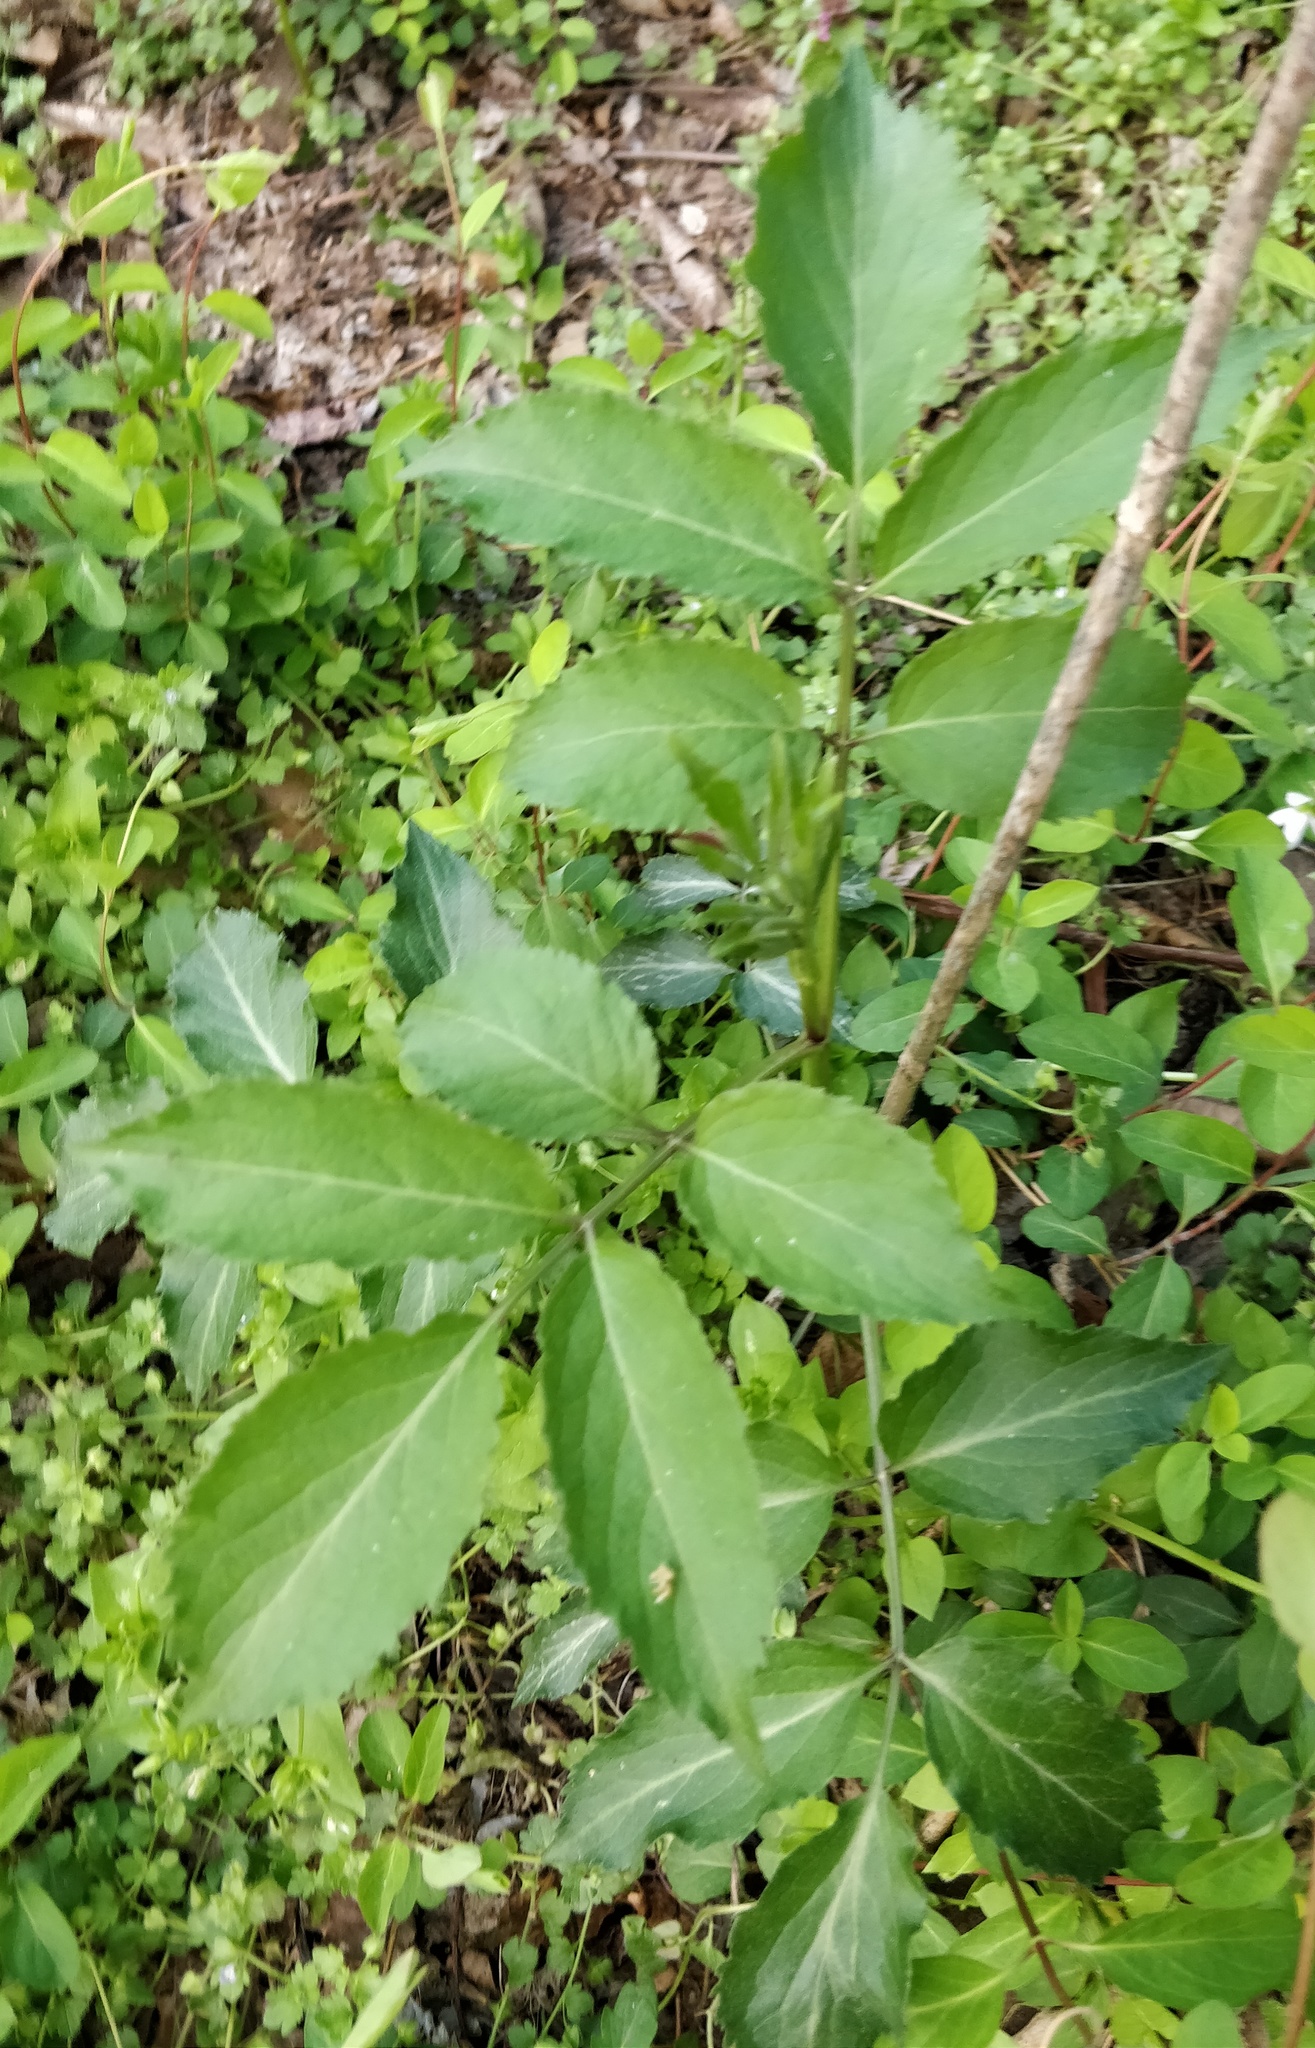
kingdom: Plantae
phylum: Tracheophyta
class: Magnoliopsida
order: Dipsacales
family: Viburnaceae
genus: Sambucus
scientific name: Sambucus canadensis
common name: American elder
